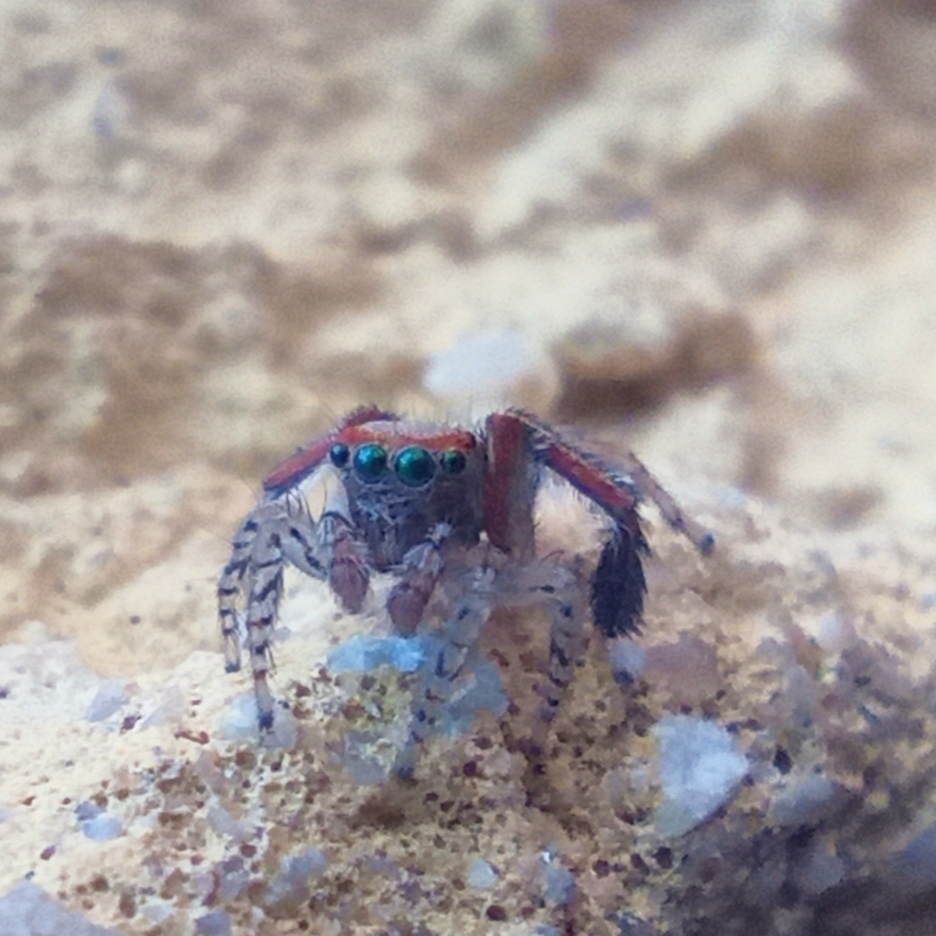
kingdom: Animalia
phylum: Arthropoda
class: Arachnida
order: Araneae
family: Salticidae
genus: Saitis
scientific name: Saitis barbipes
